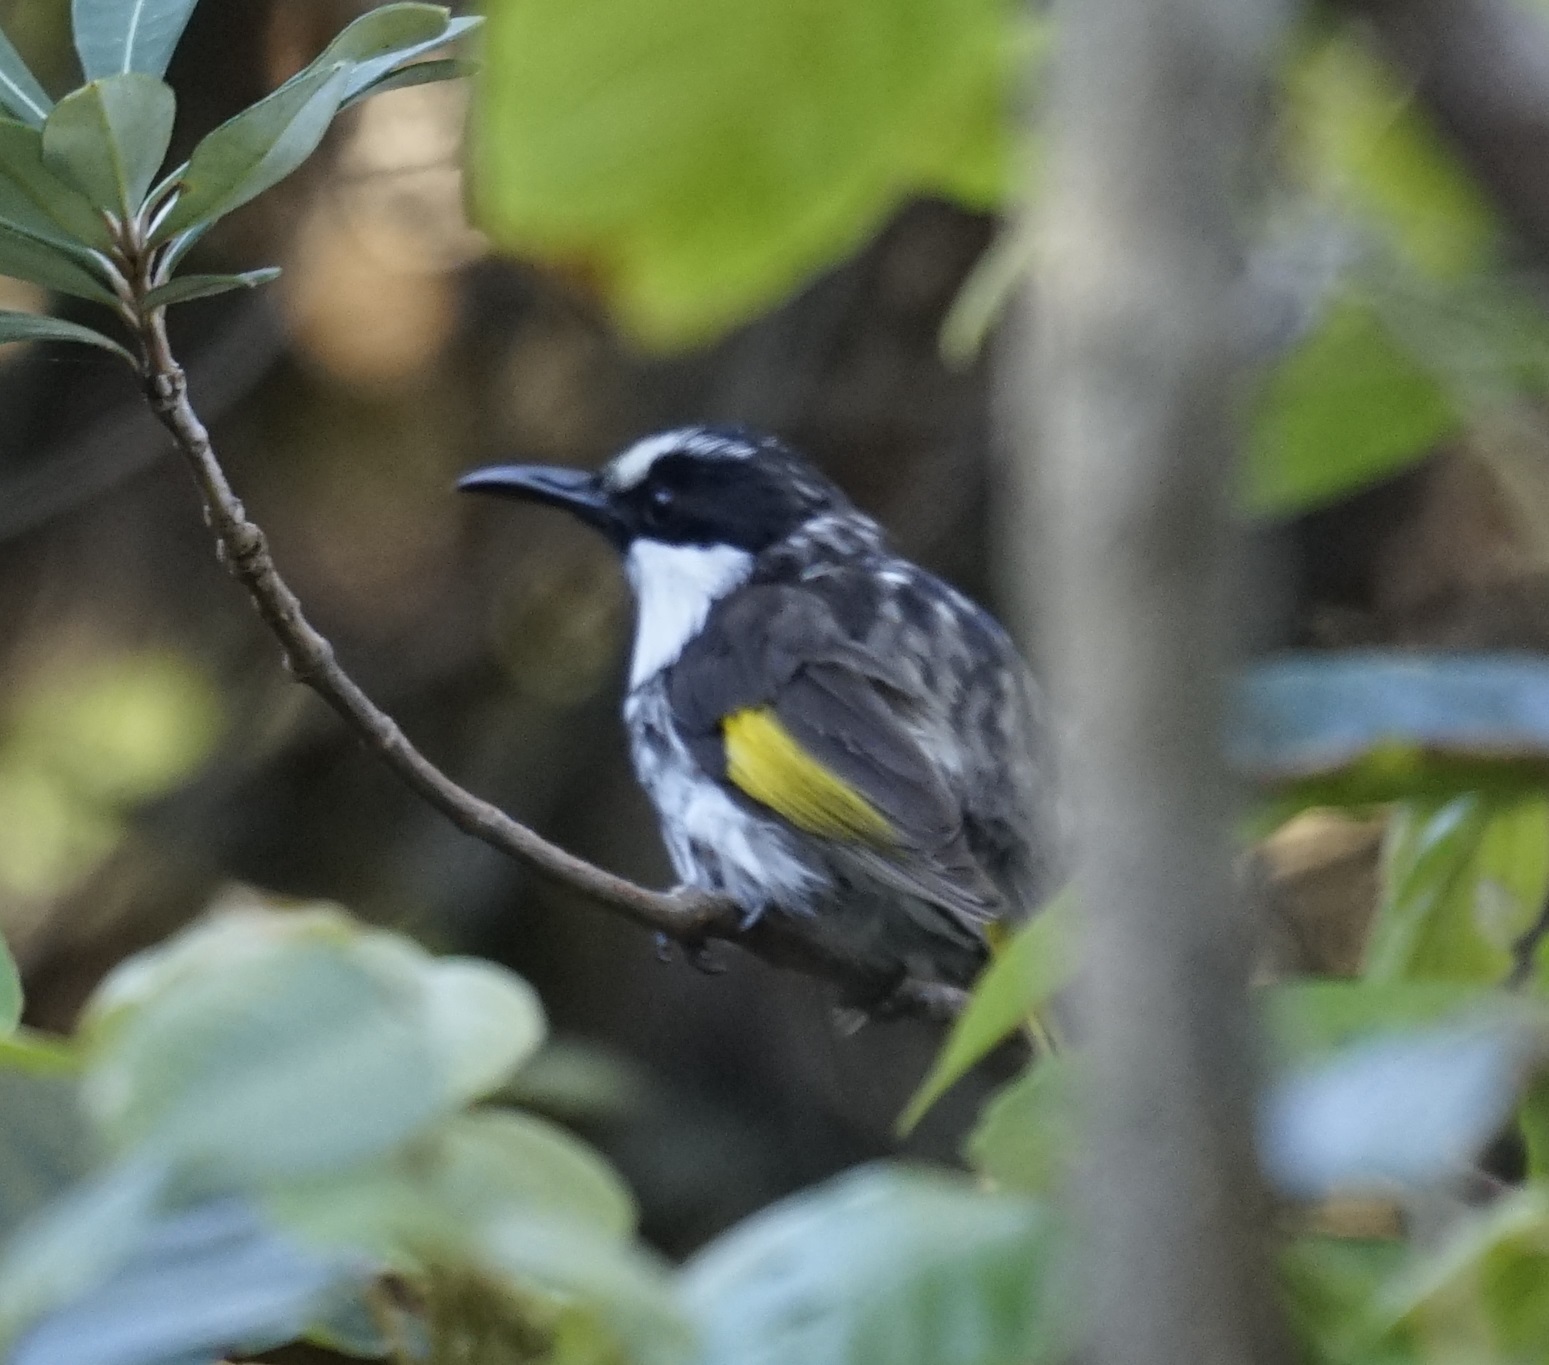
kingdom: Animalia
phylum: Chordata
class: Aves
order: Passeriformes
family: Meliphagidae
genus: Phylidonyris
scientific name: Phylidonyris niger
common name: White-cheeked honeyeater
